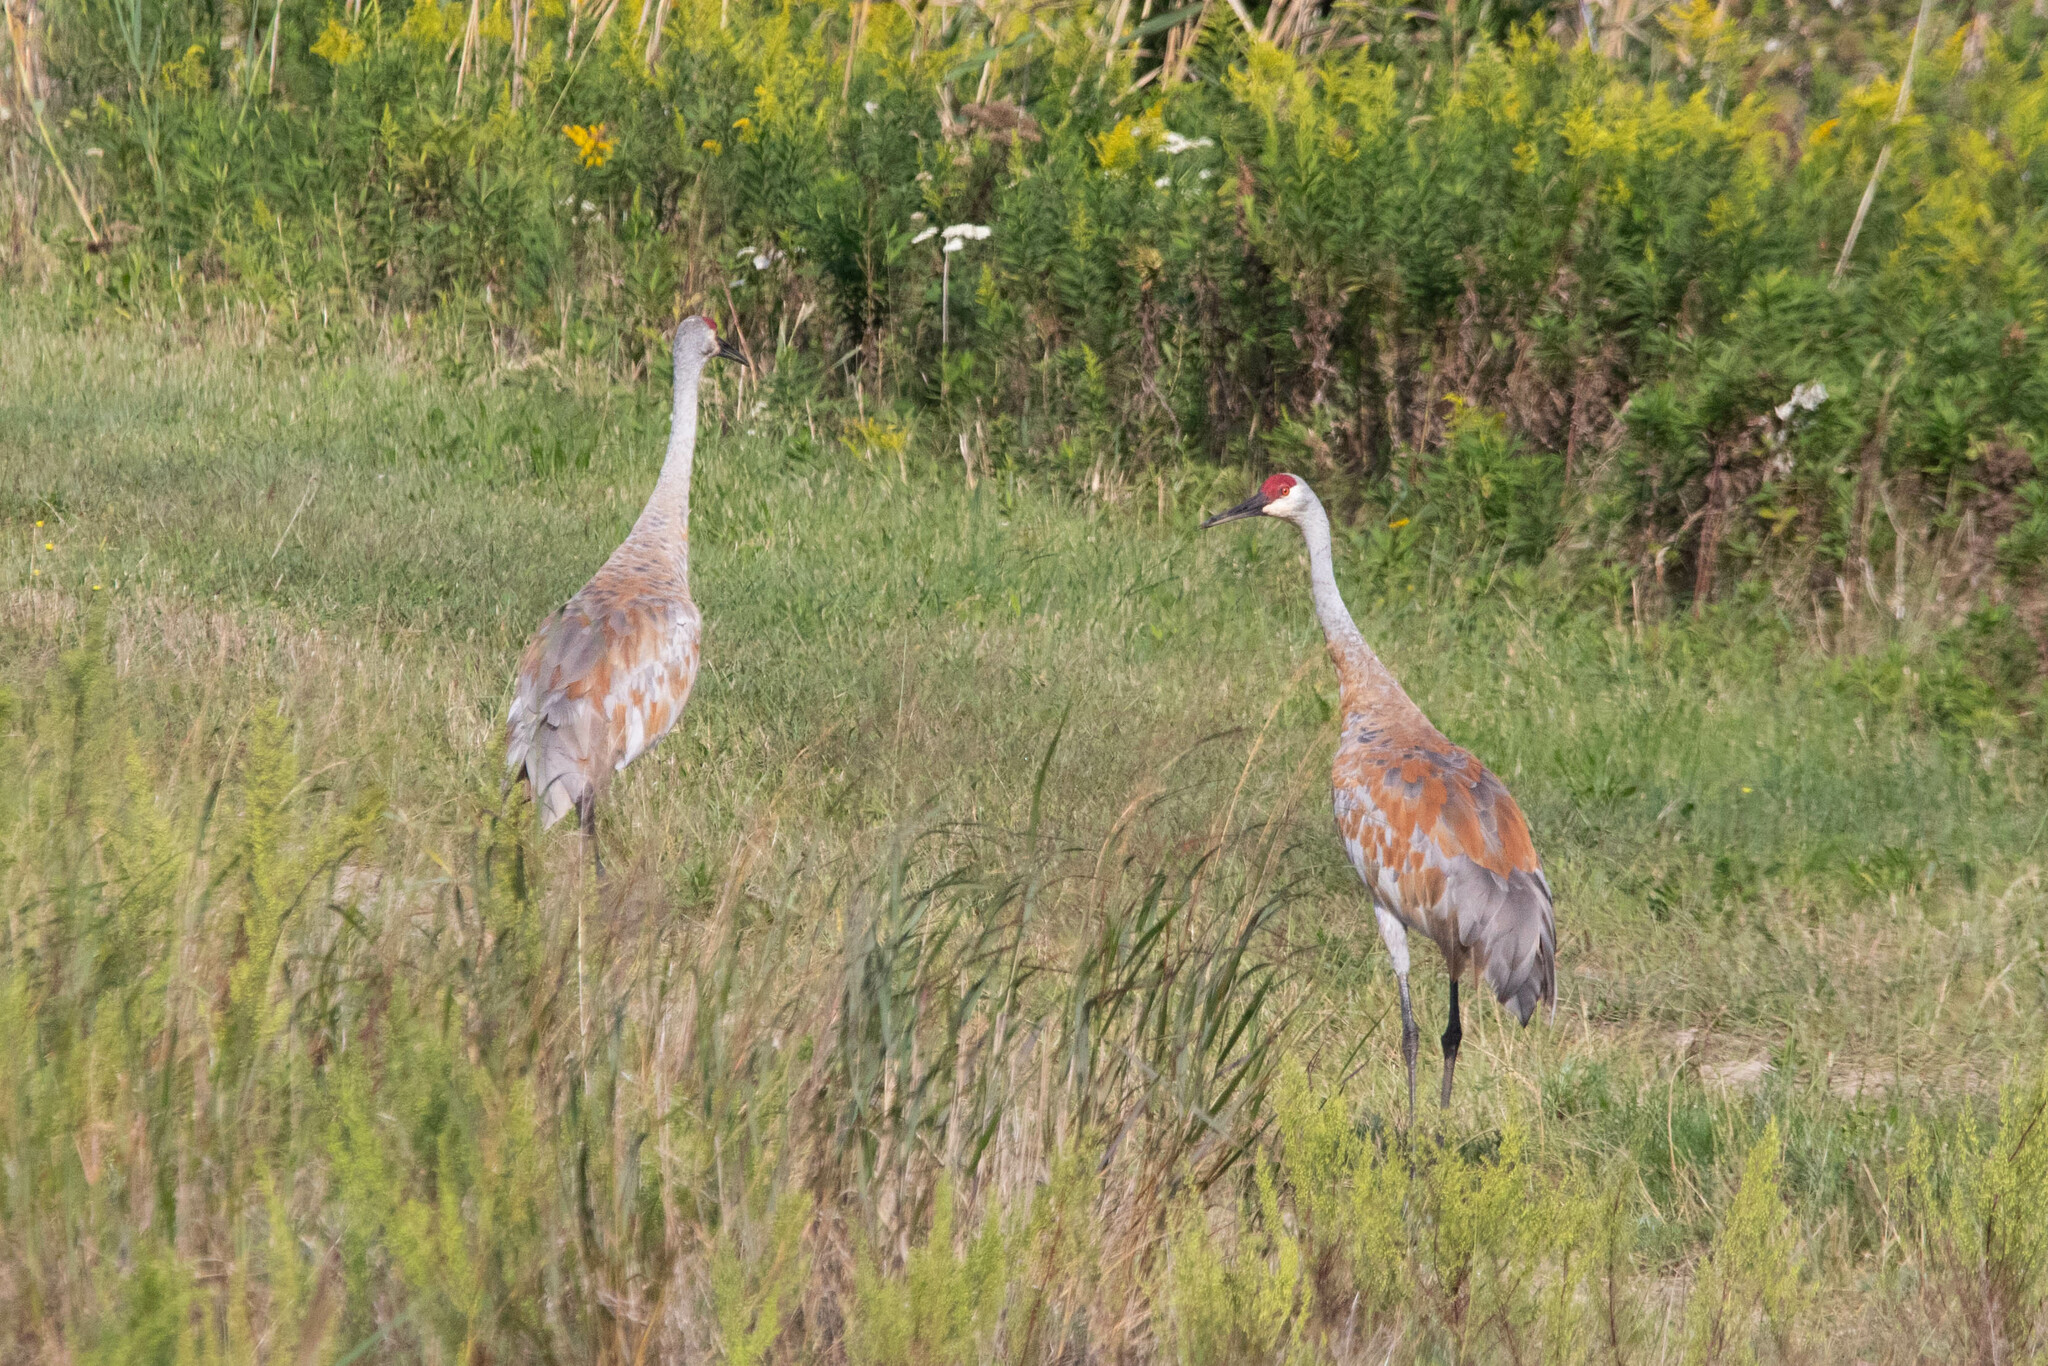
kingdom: Animalia
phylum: Chordata
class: Aves
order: Gruiformes
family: Gruidae
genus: Grus
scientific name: Grus canadensis
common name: Sandhill crane
